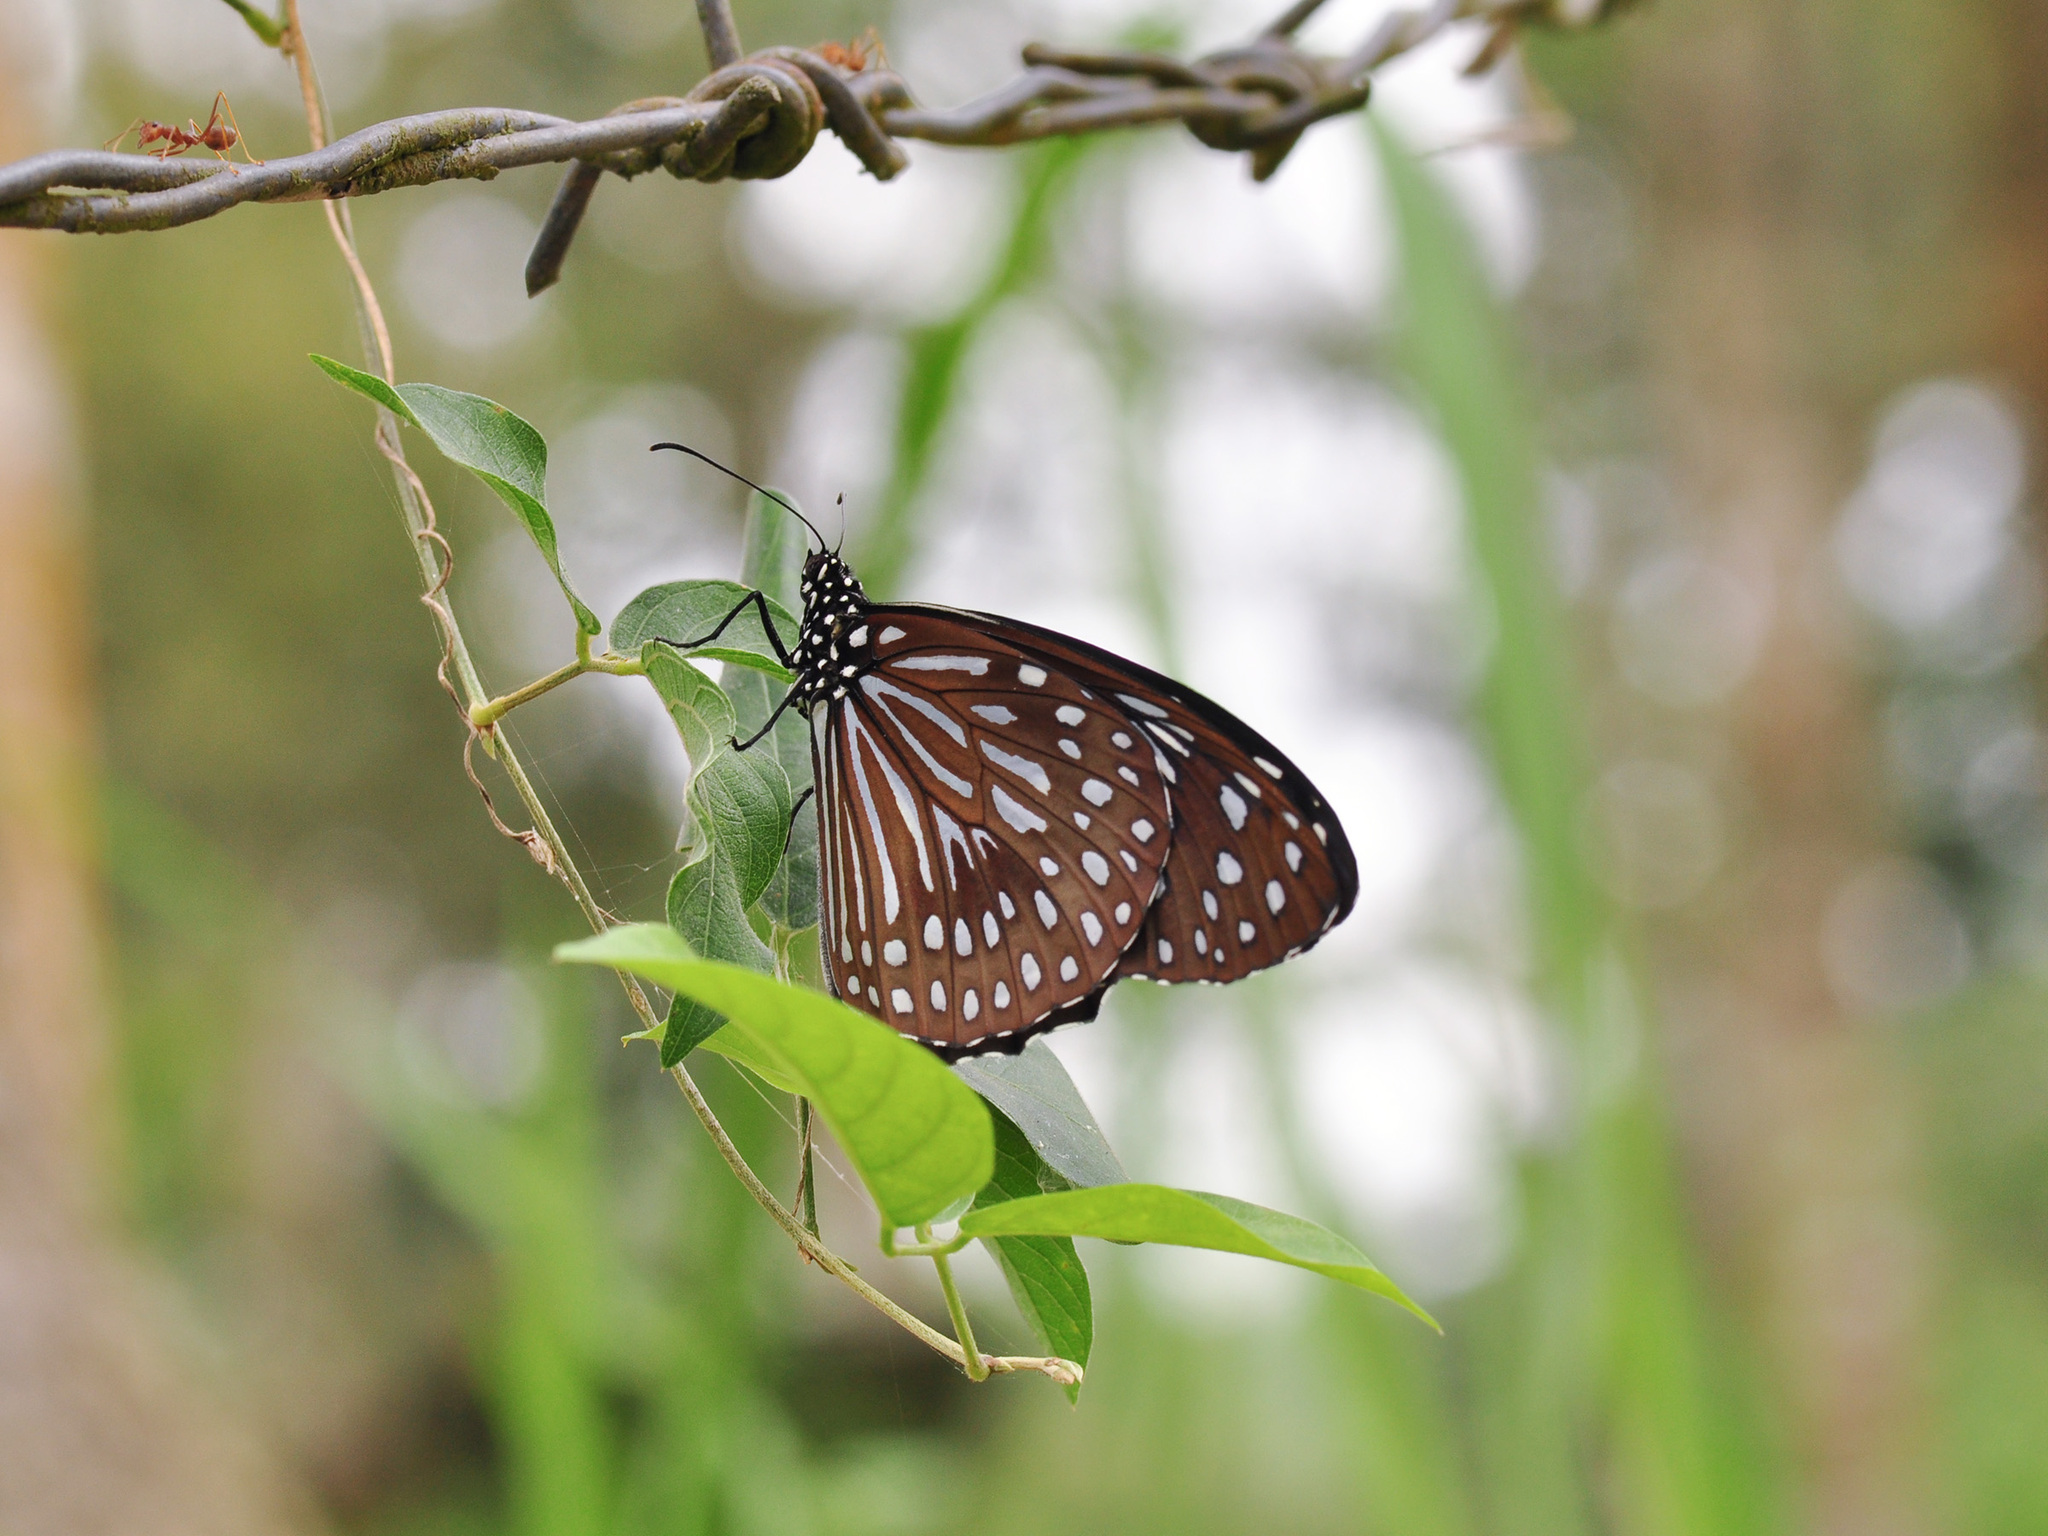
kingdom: Animalia
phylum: Arthropoda
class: Insecta
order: Lepidoptera
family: Nymphalidae
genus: Tirumala
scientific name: Tirumala septentrionis
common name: Dark blue tiger butterfly
